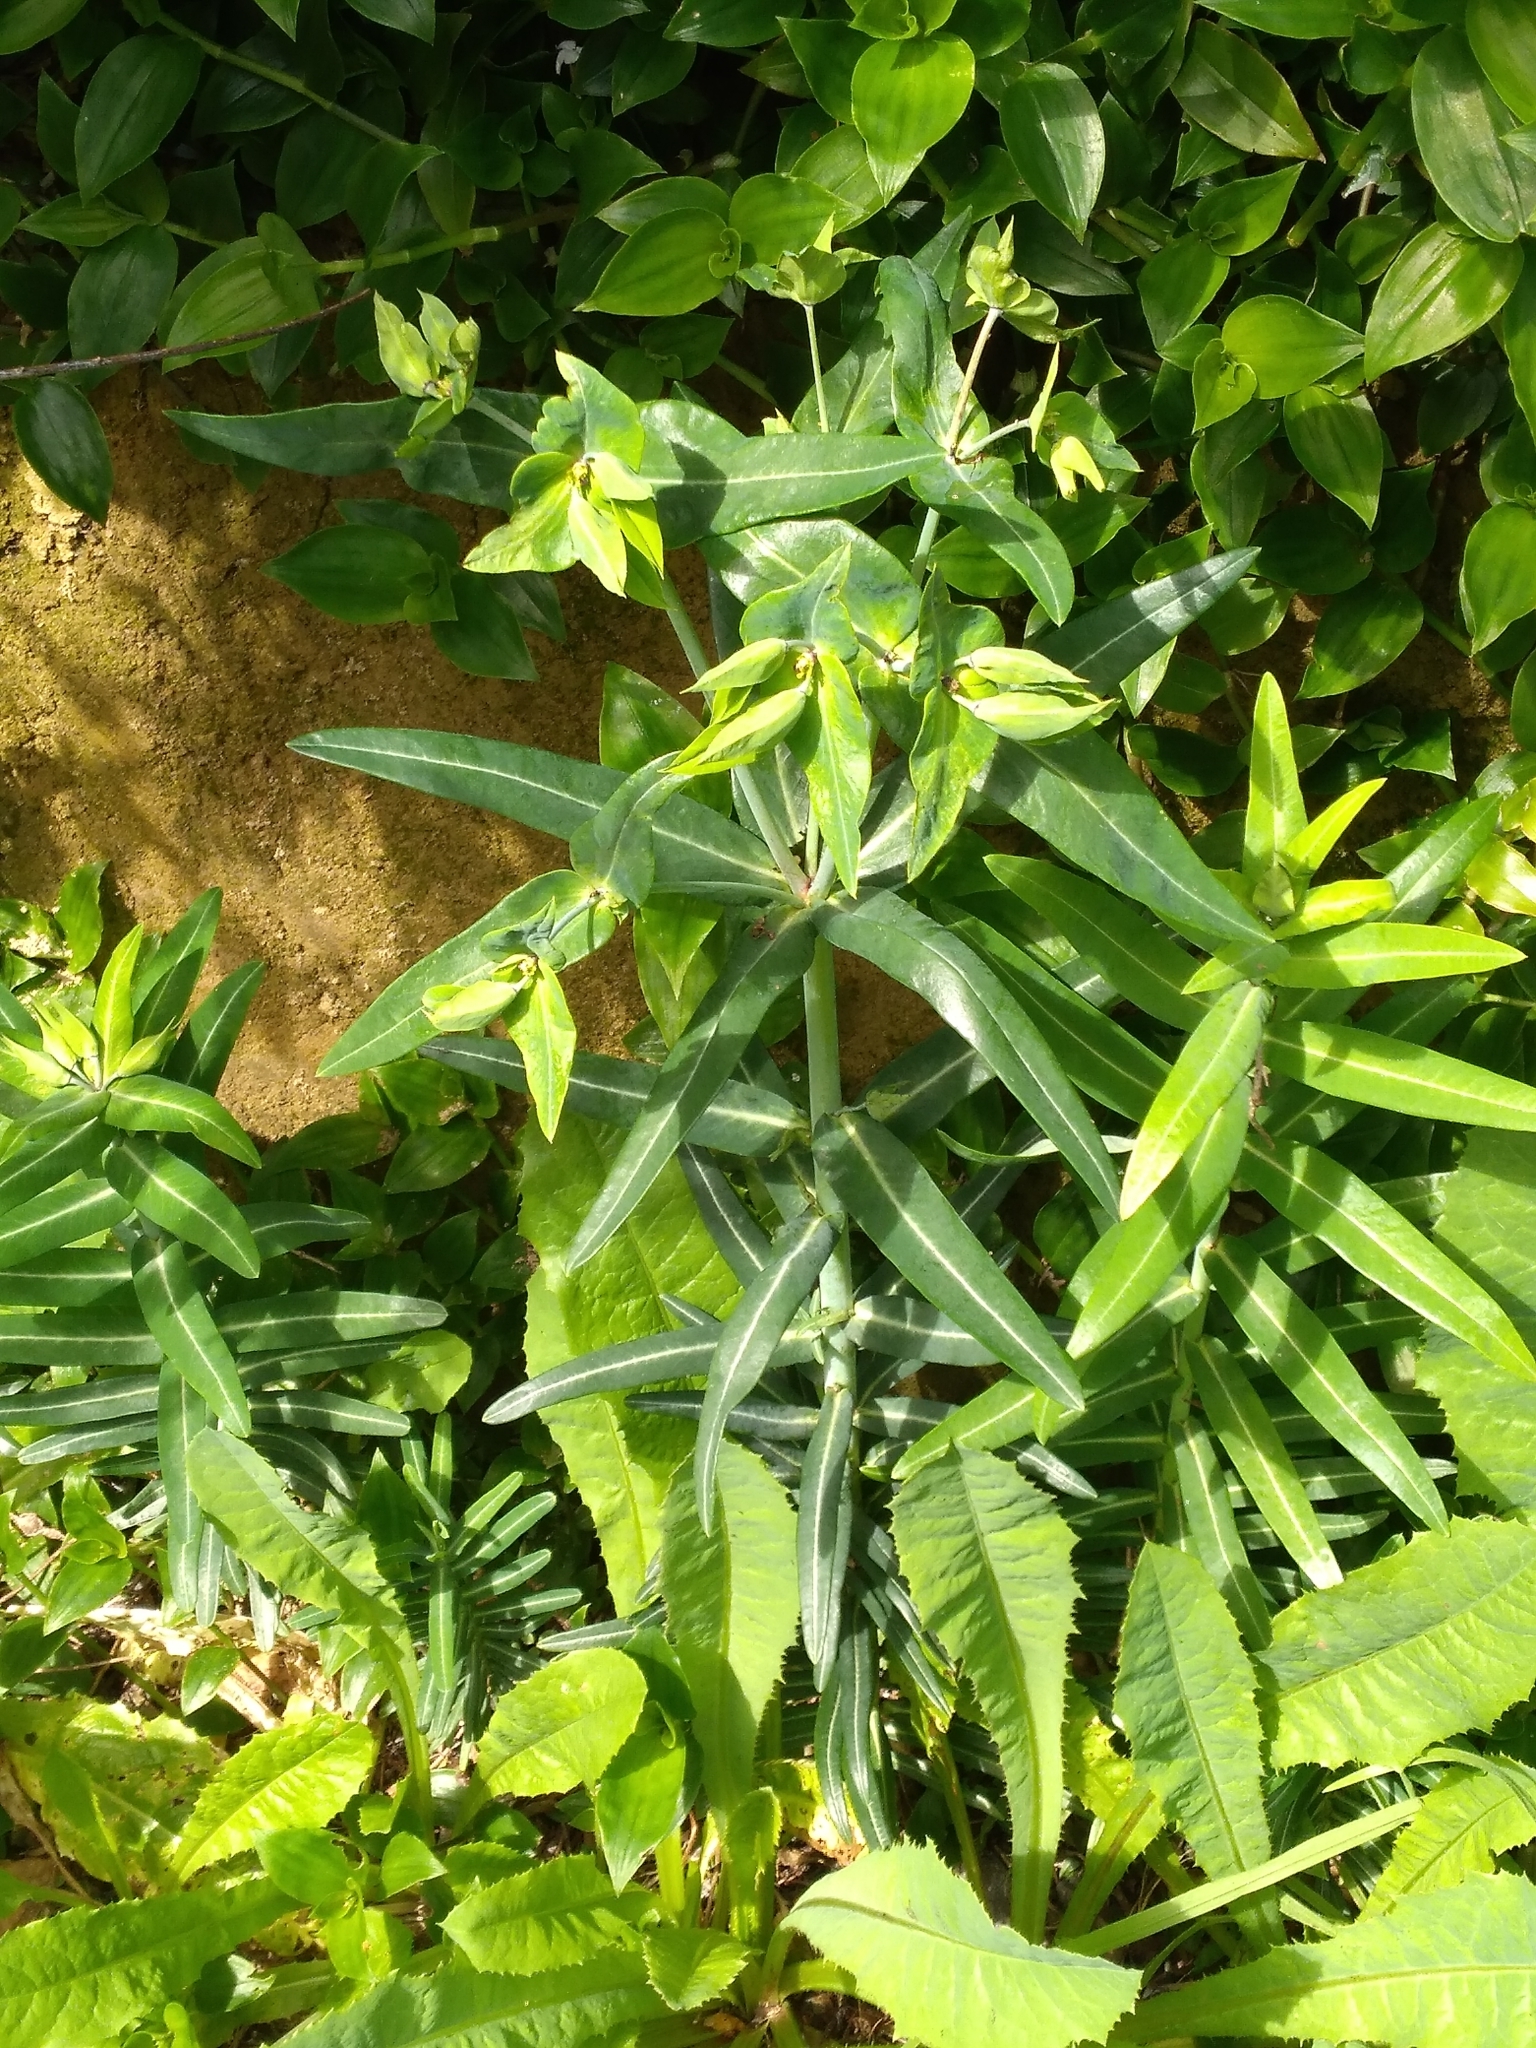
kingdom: Plantae
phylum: Tracheophyta
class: Magnoliopsida
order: Malpighiales
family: Euphorbiaceae
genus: Euphorbia
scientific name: Euphorbia lathyris
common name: Caper spurge
